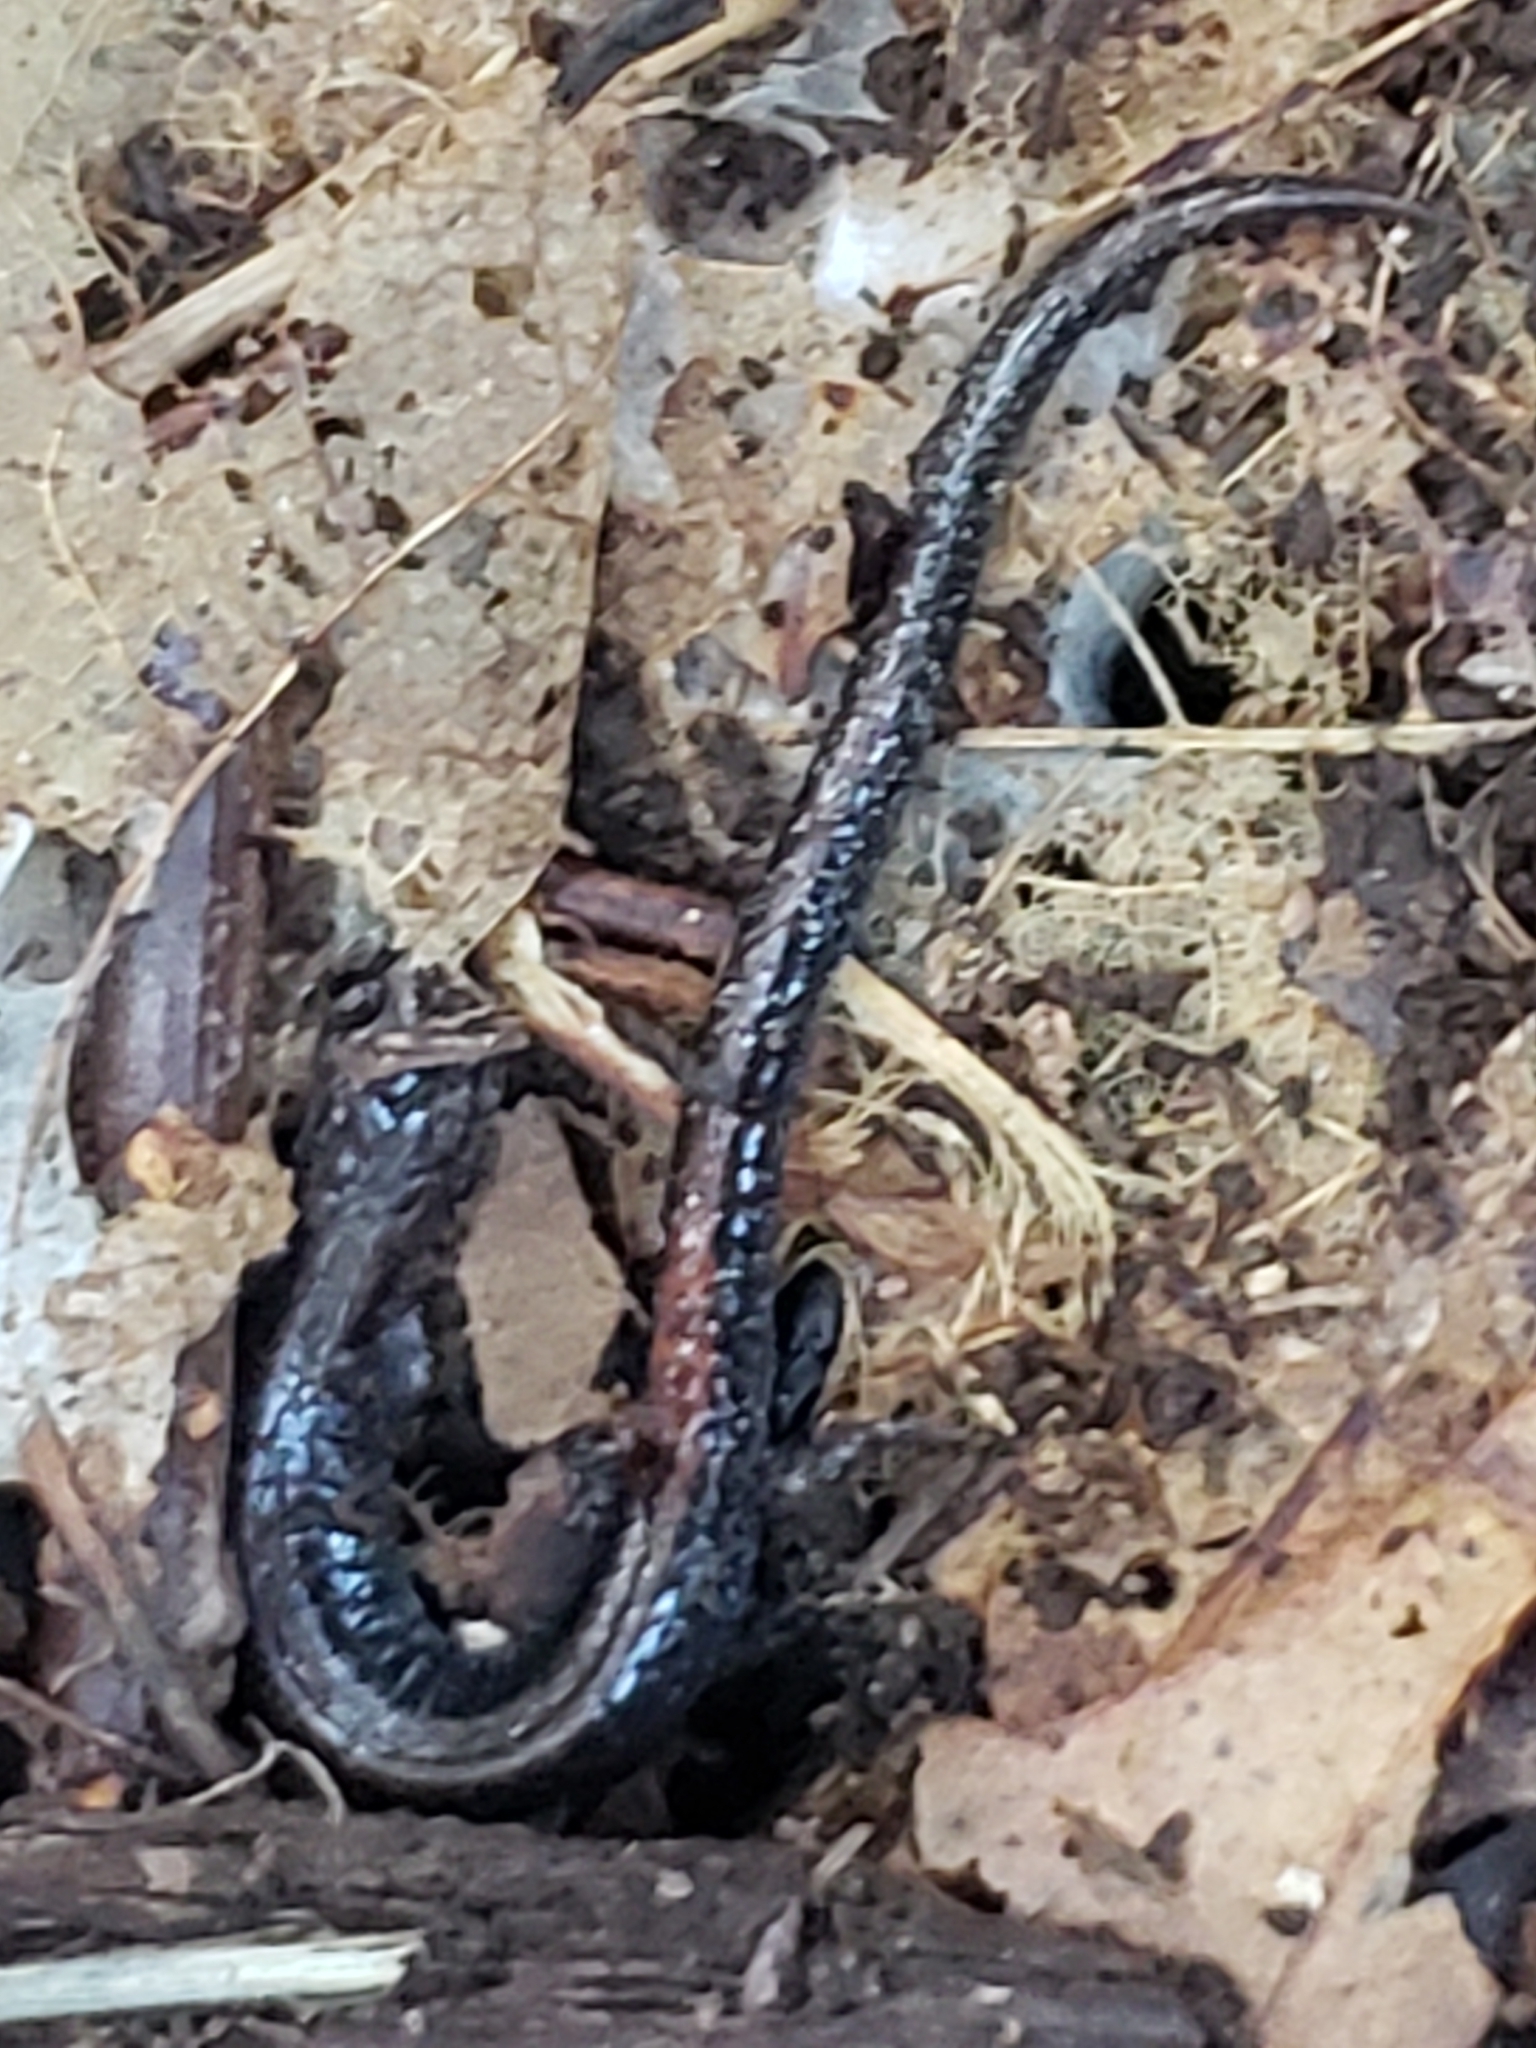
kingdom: Animalia
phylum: Chordata
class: Amphibia
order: Caudata
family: Plethodontidae
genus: Plethodon
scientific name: Plethodon cinereus
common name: Redback salamander
